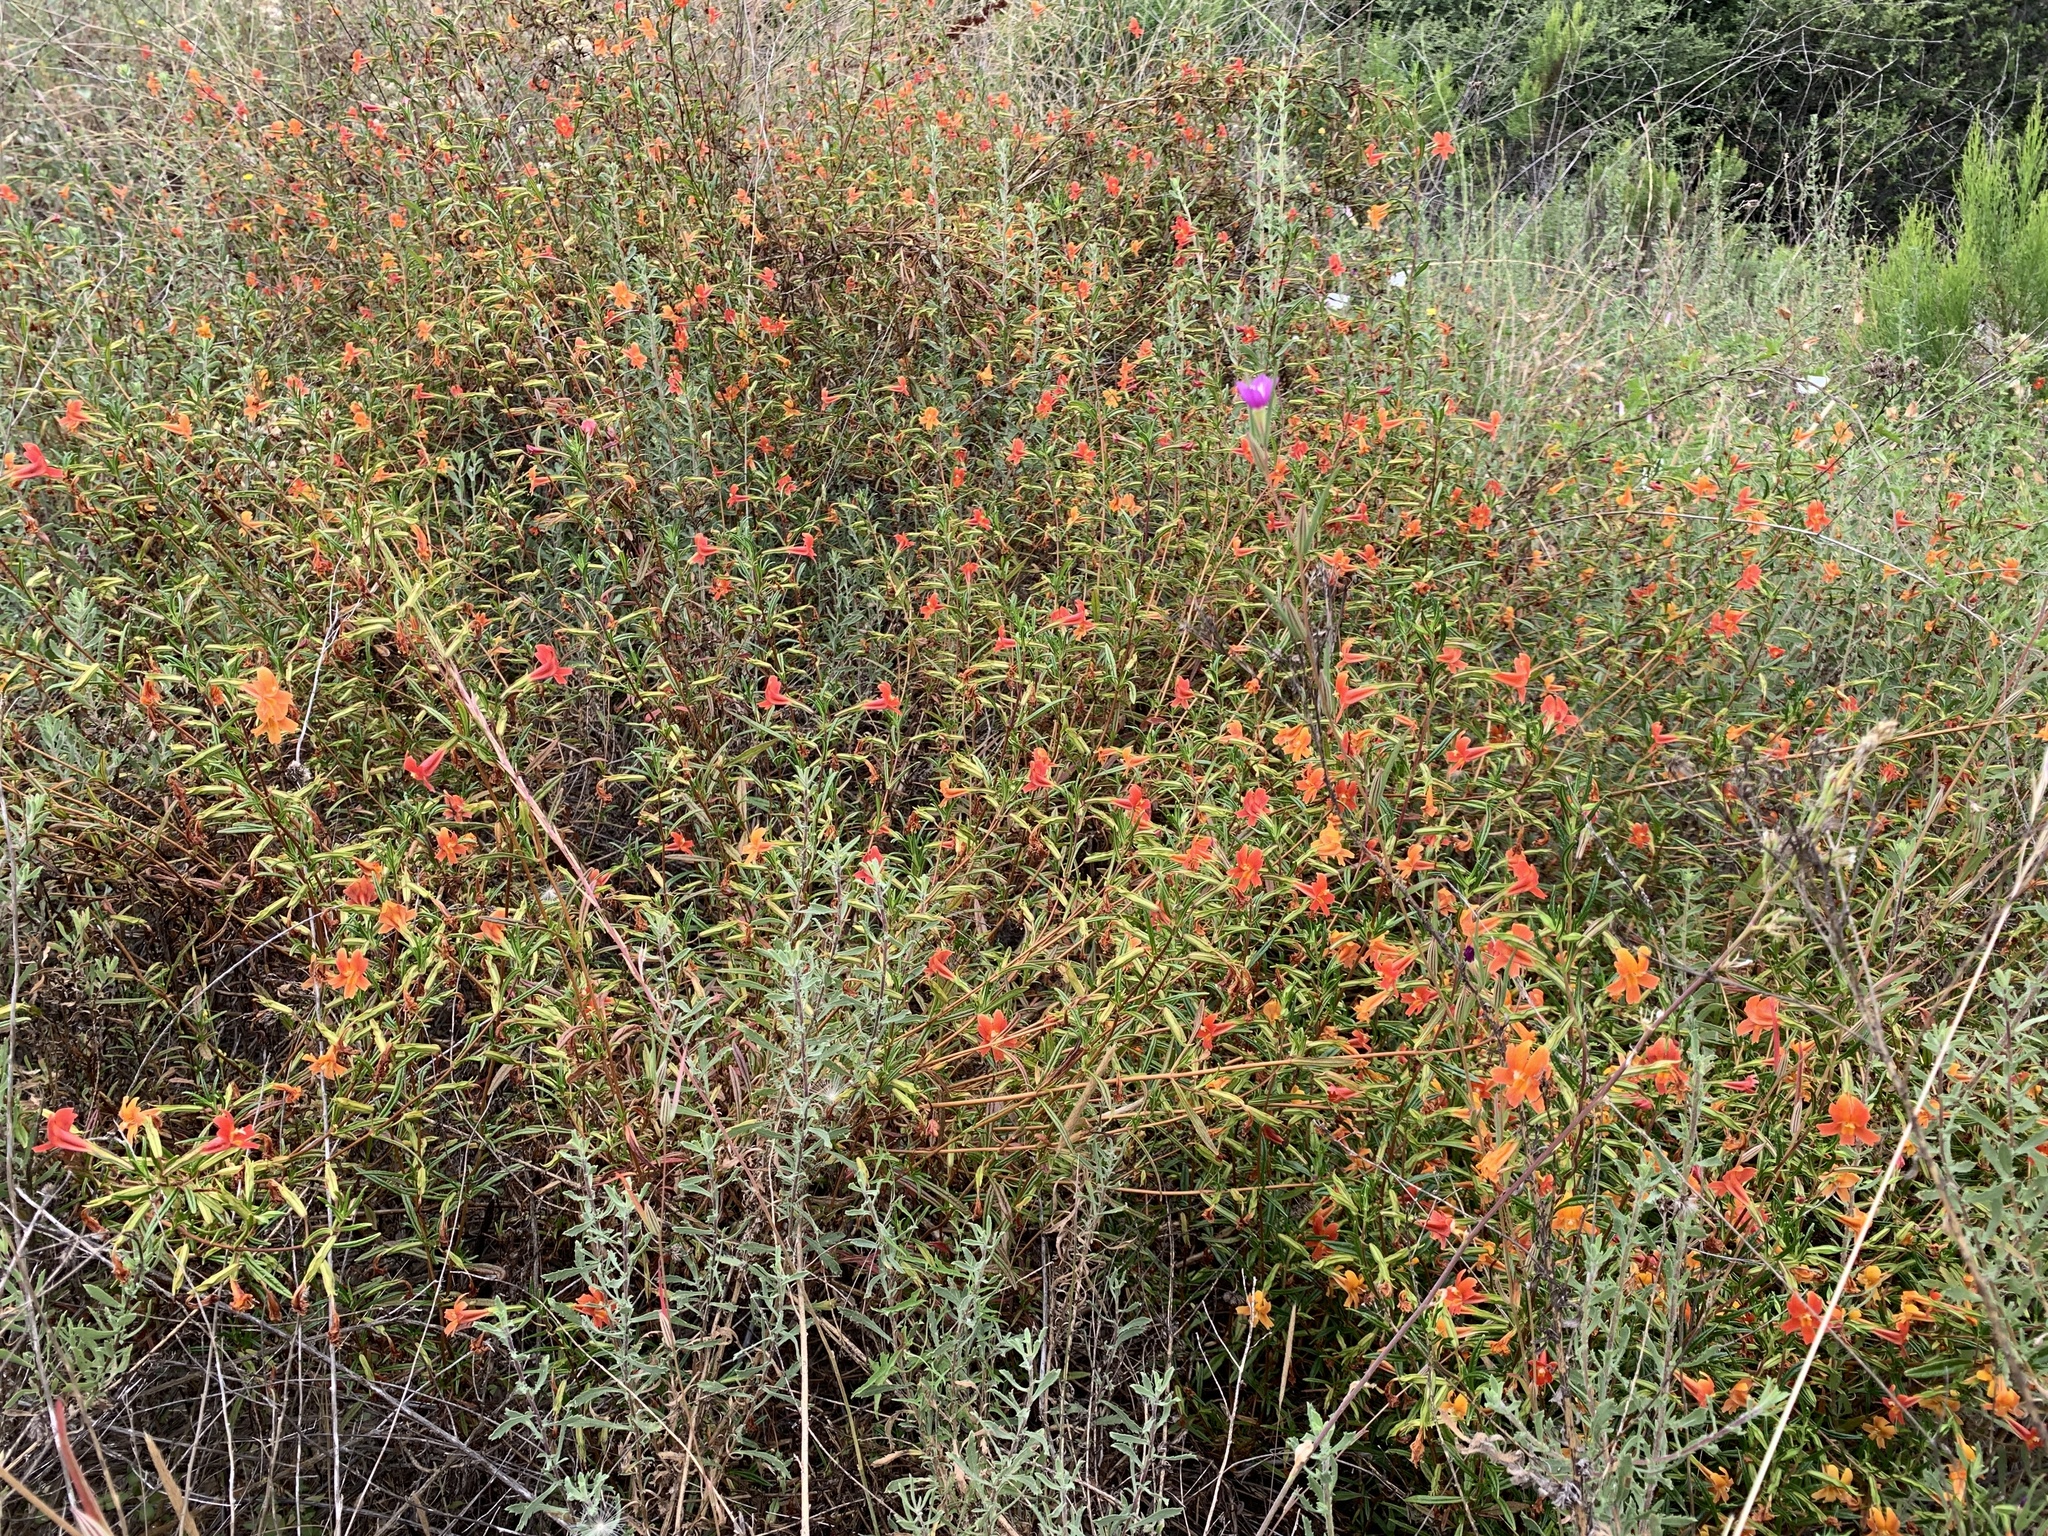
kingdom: Plantae
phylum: Tracheophyta
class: Magnoliopsida
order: Lamiales
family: Phrymaceae
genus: Diplacus
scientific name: Diplacus puniceus
